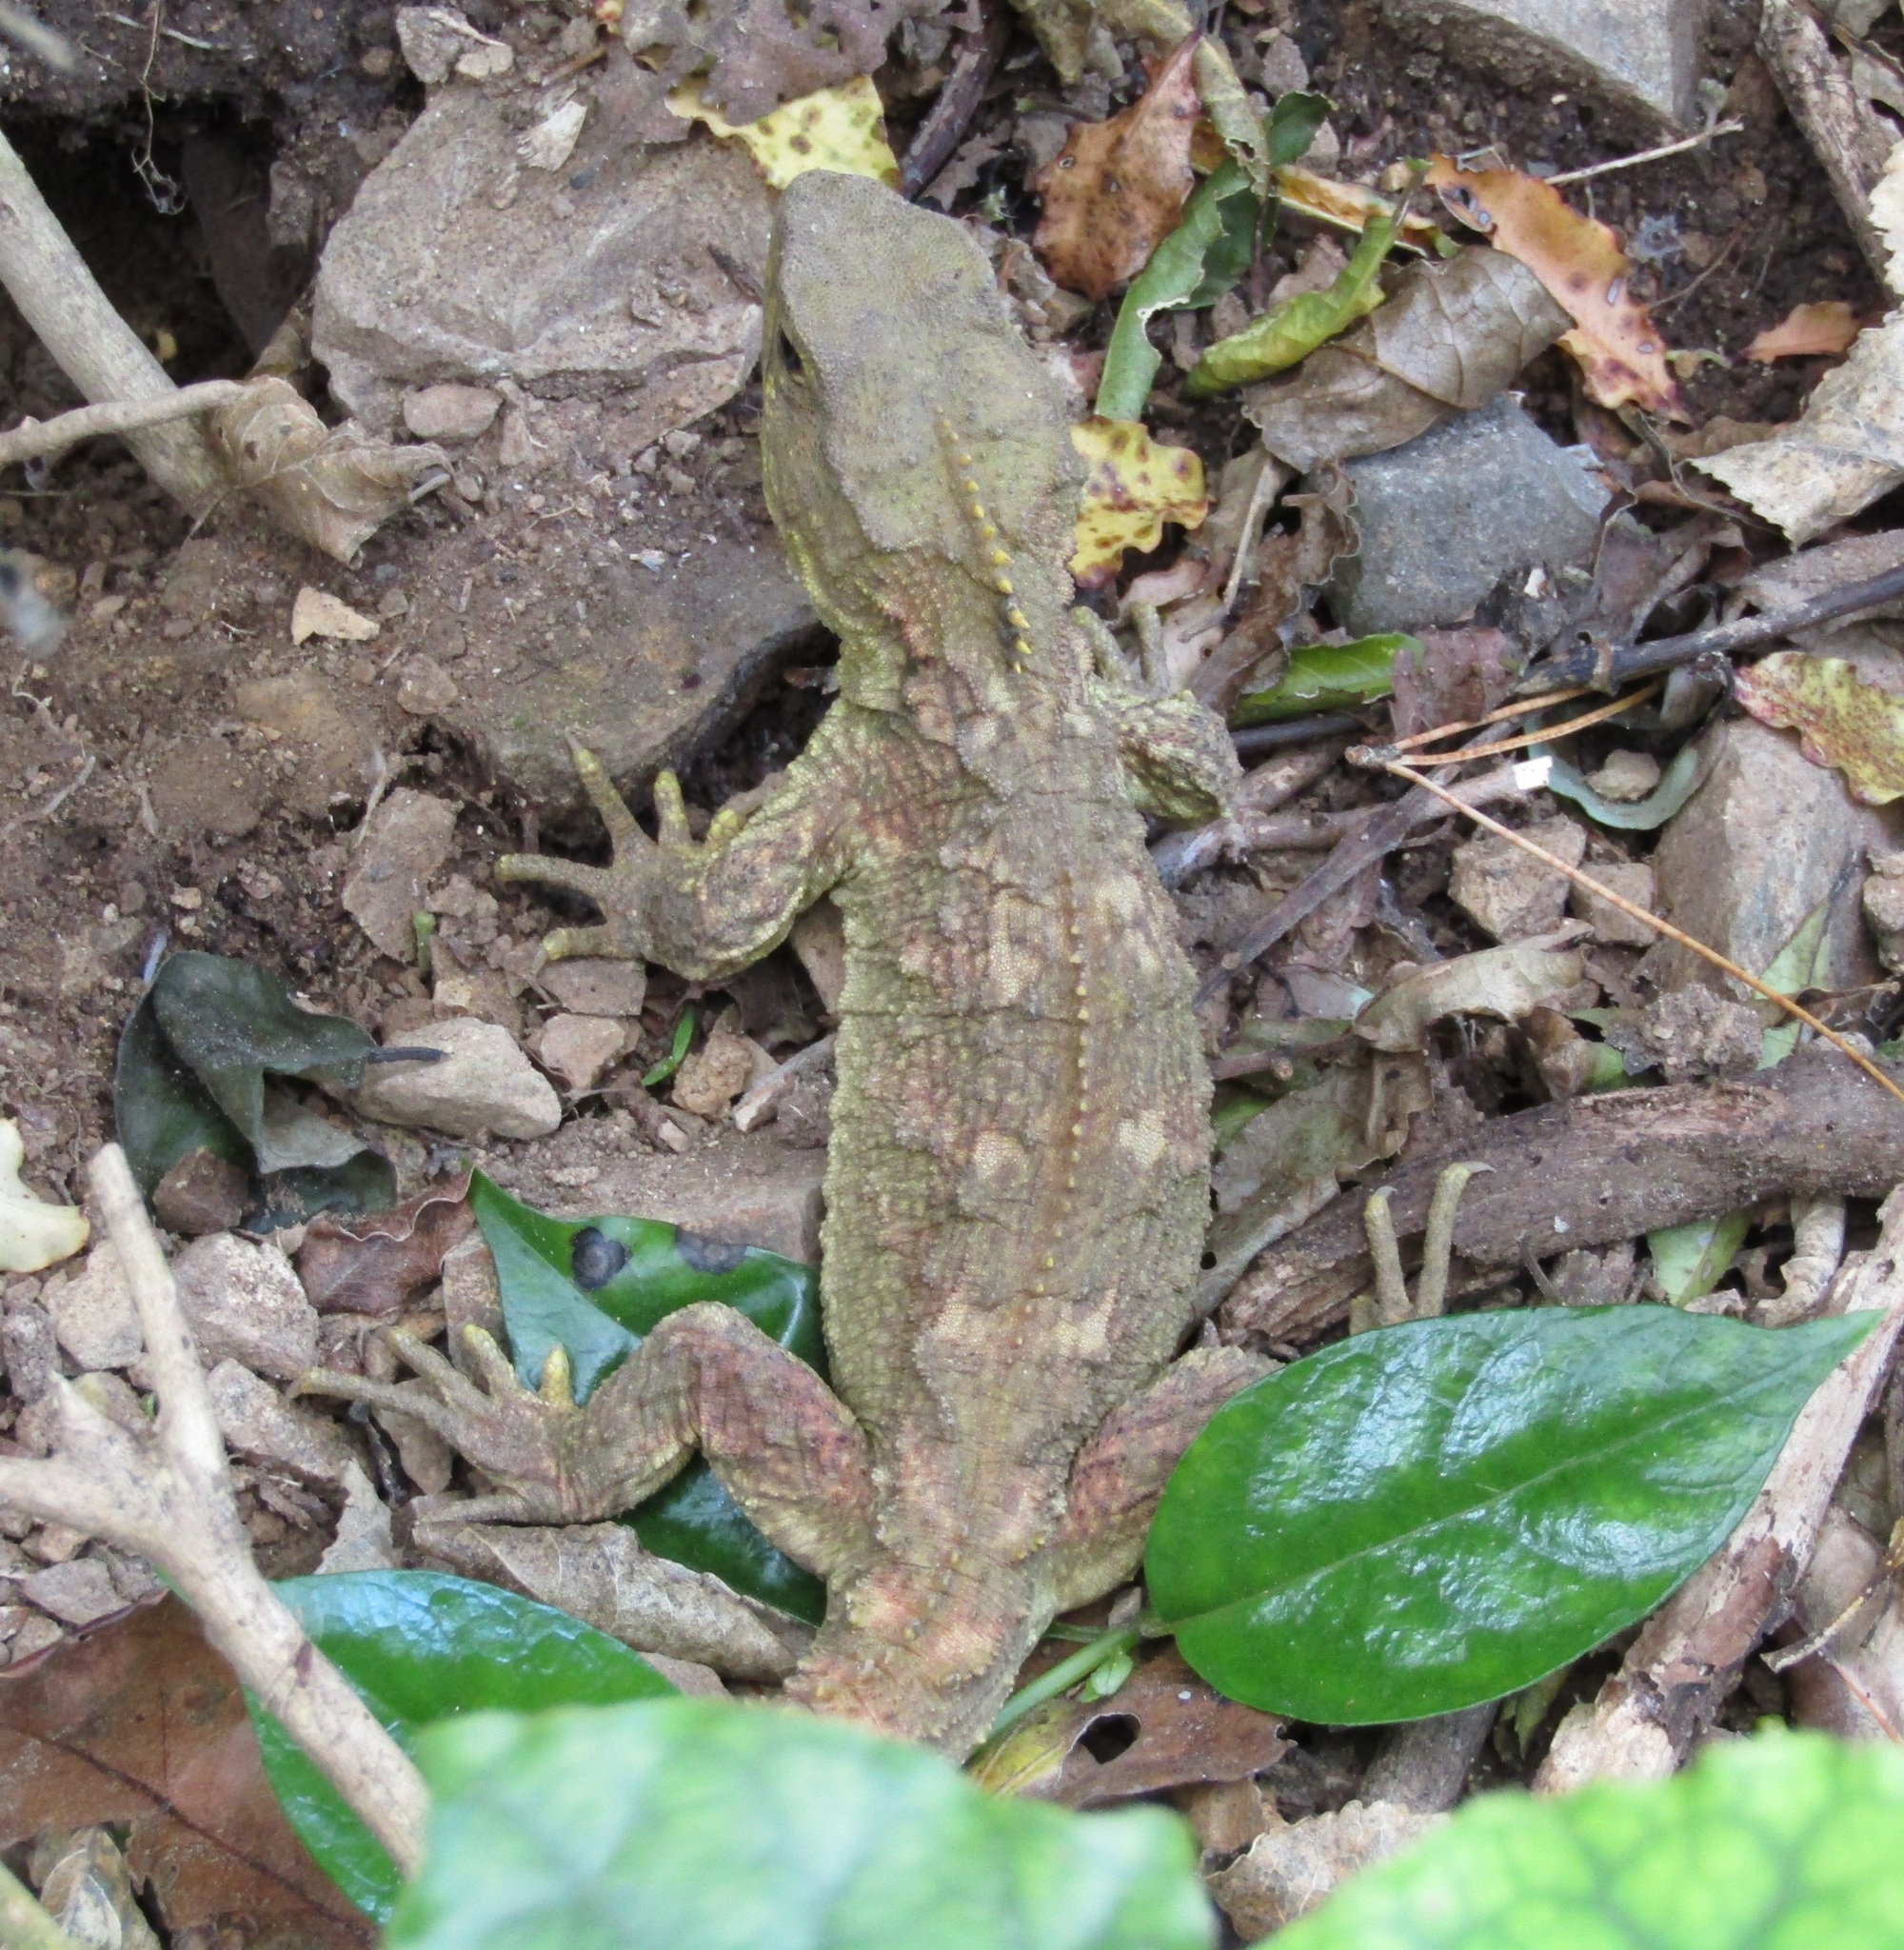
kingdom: Animalia
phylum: Chordata
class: Sphenodontia
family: Sphenodontidae
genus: Sphenodon
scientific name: Sphenodon punctatus
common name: Tuatara
